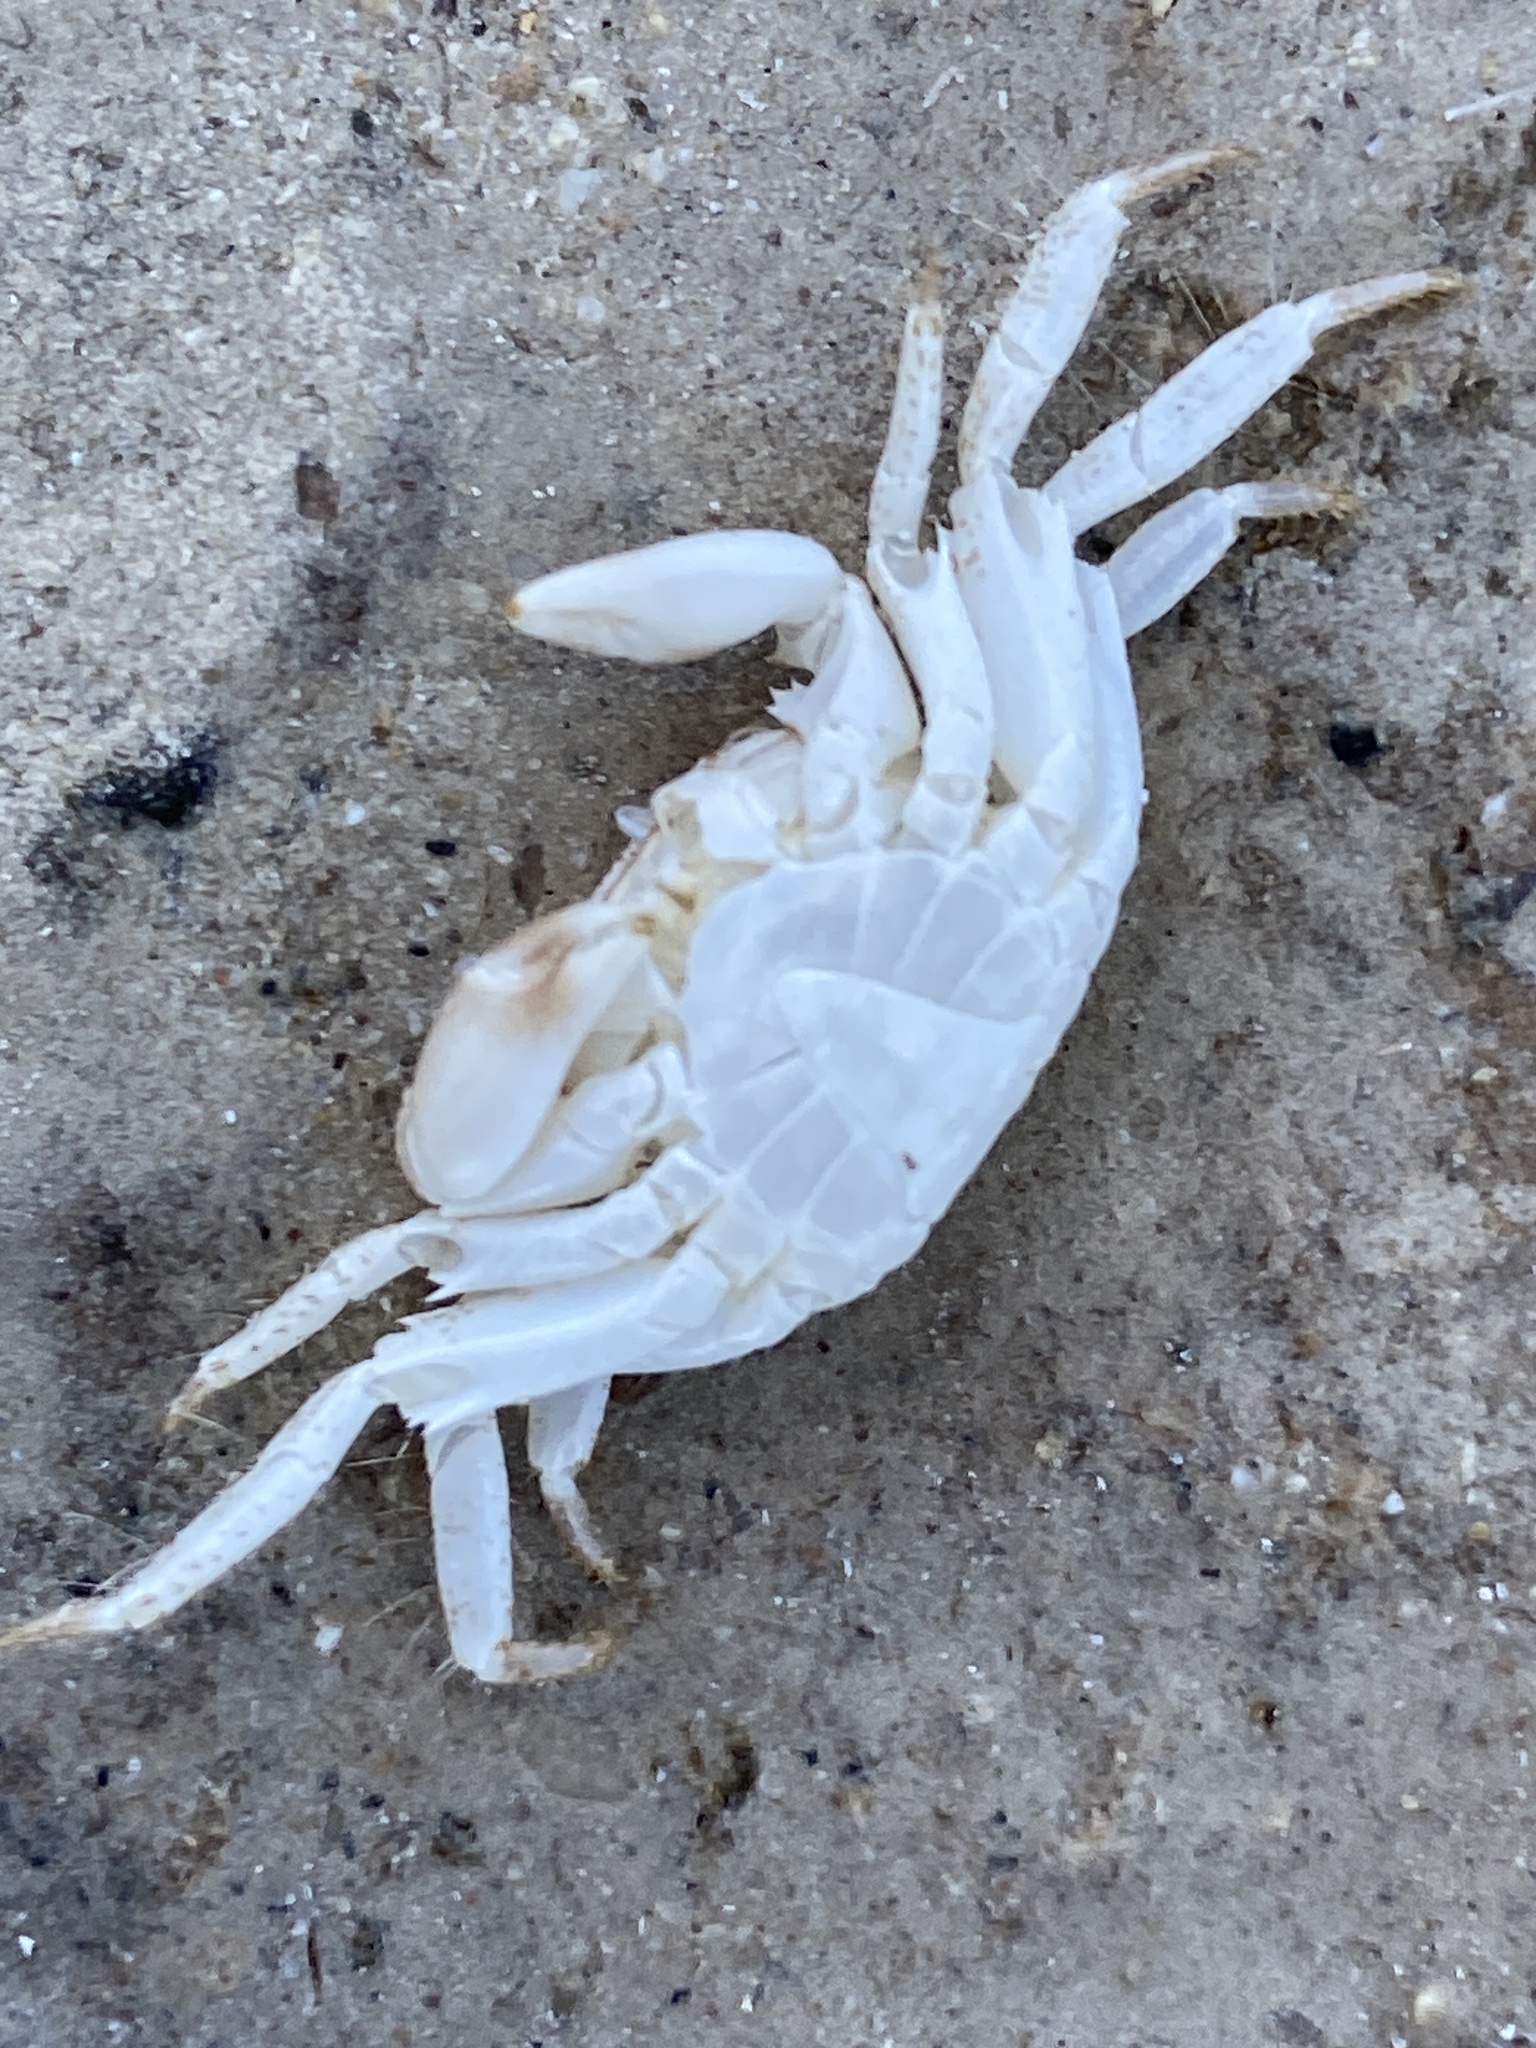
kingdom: Animalia
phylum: Arthropoda
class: Malacostraca
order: Decapoda
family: Grapsidae
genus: Pachygrapsus
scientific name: Pachygrapsus marmoratus
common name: Marbled rock crab
